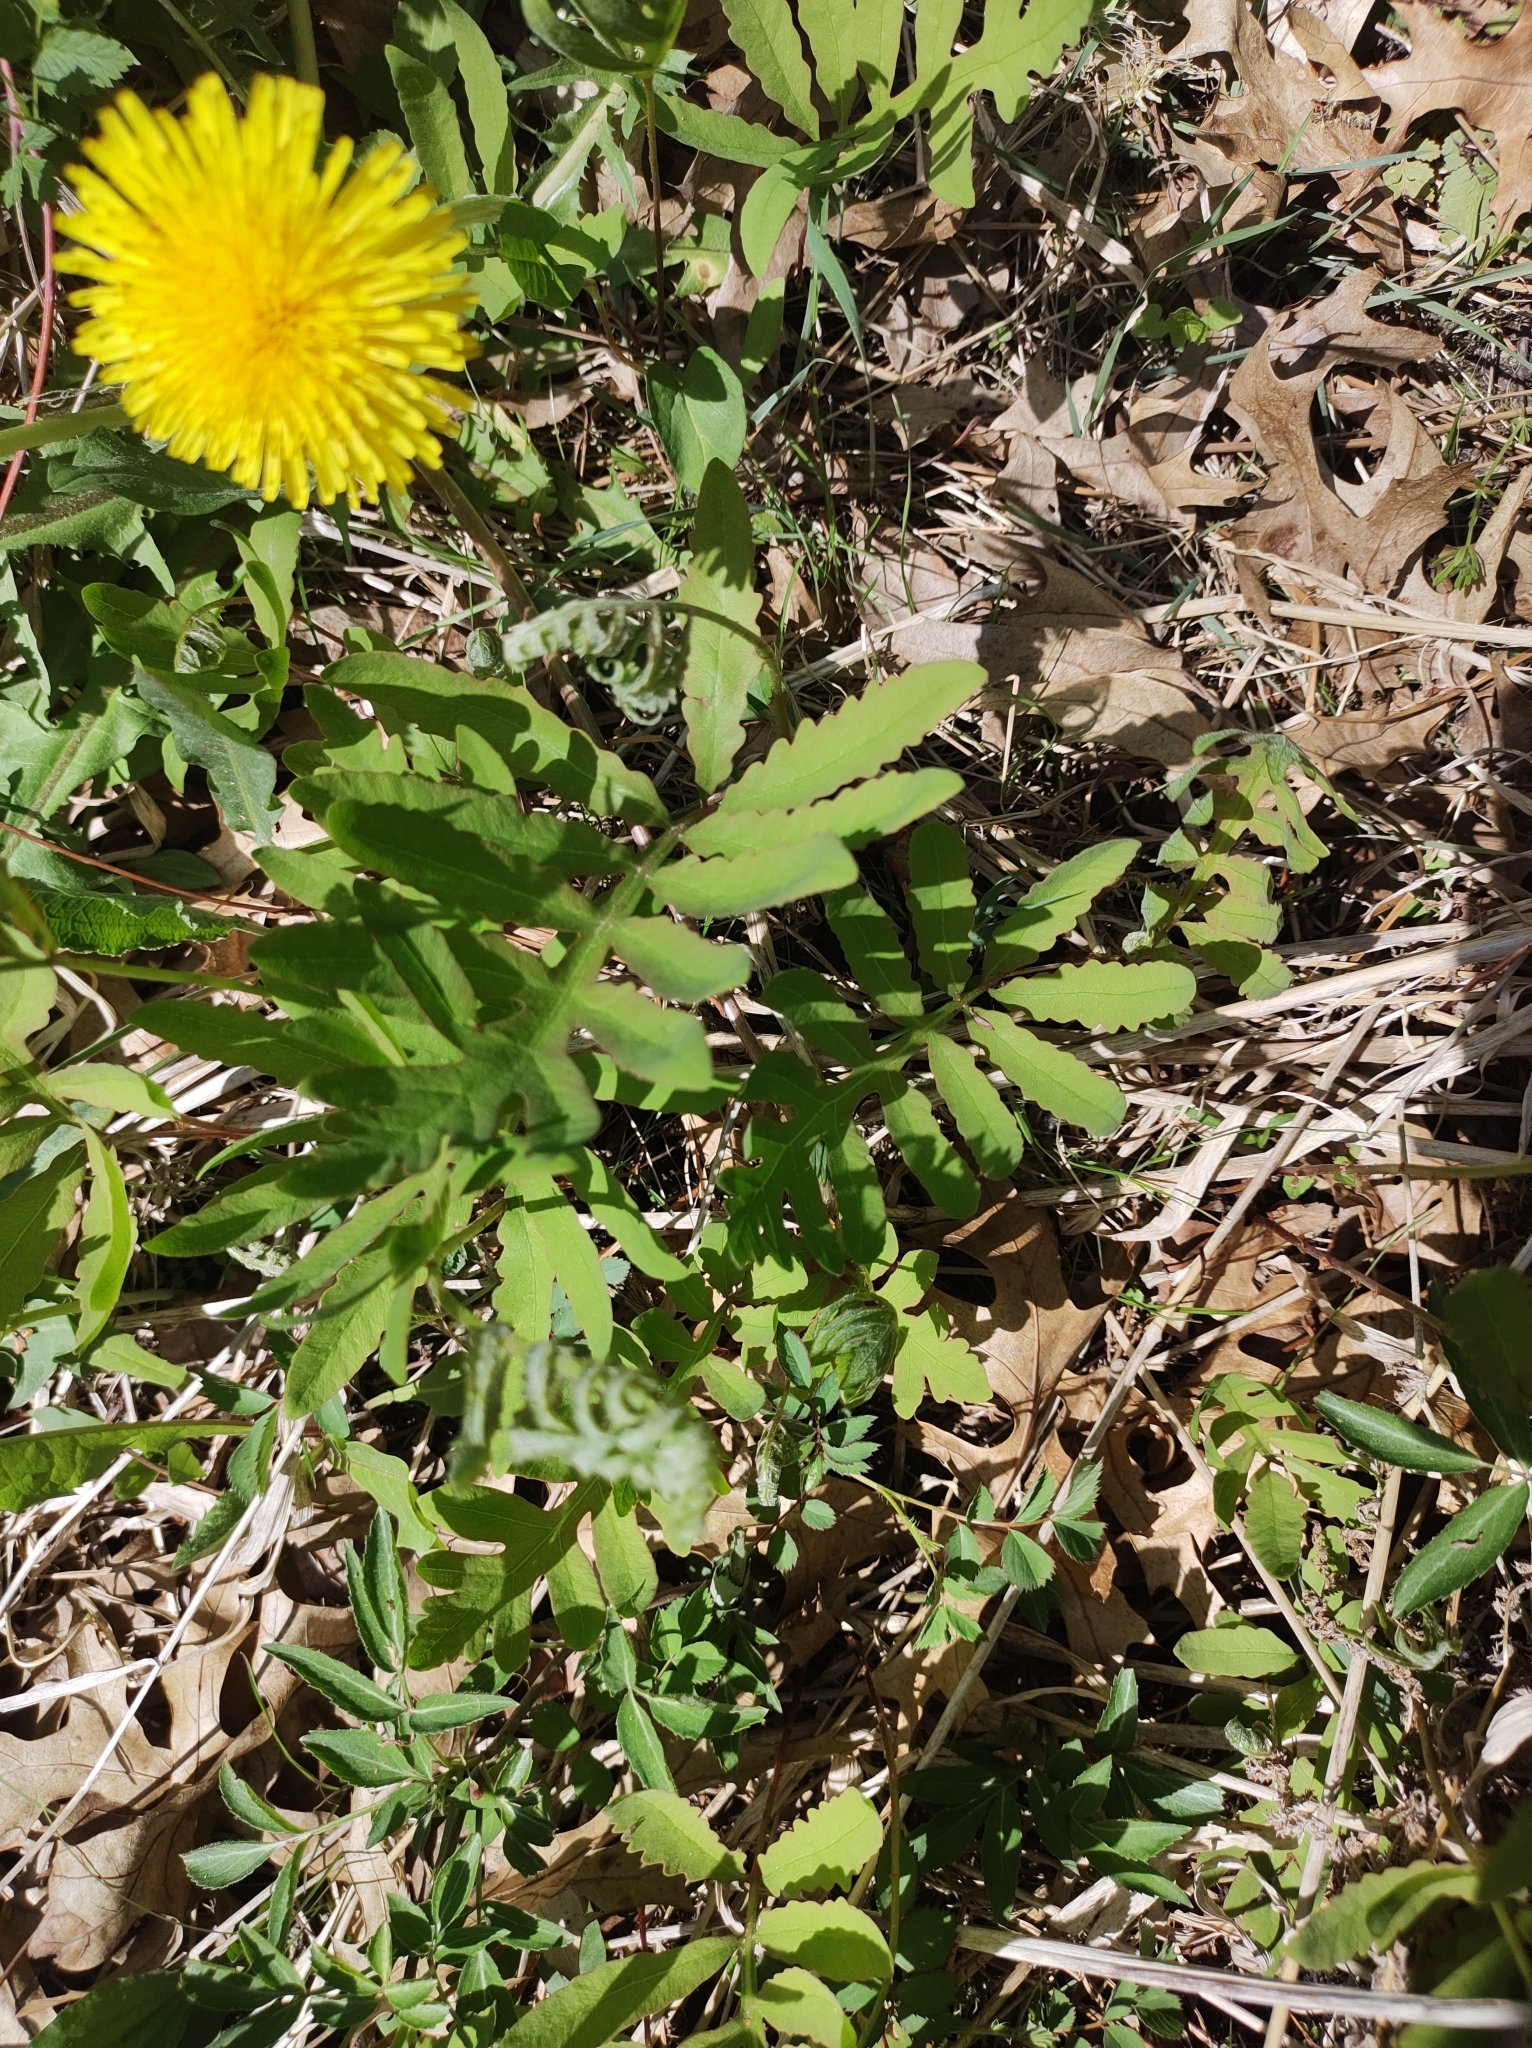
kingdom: Plantae
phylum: Tracheophyta
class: Polypodiopsida
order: Polypodiales
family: Onocleaceae
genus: Onoclea
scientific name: Onoclea sensibilis
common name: Sensitive fern
